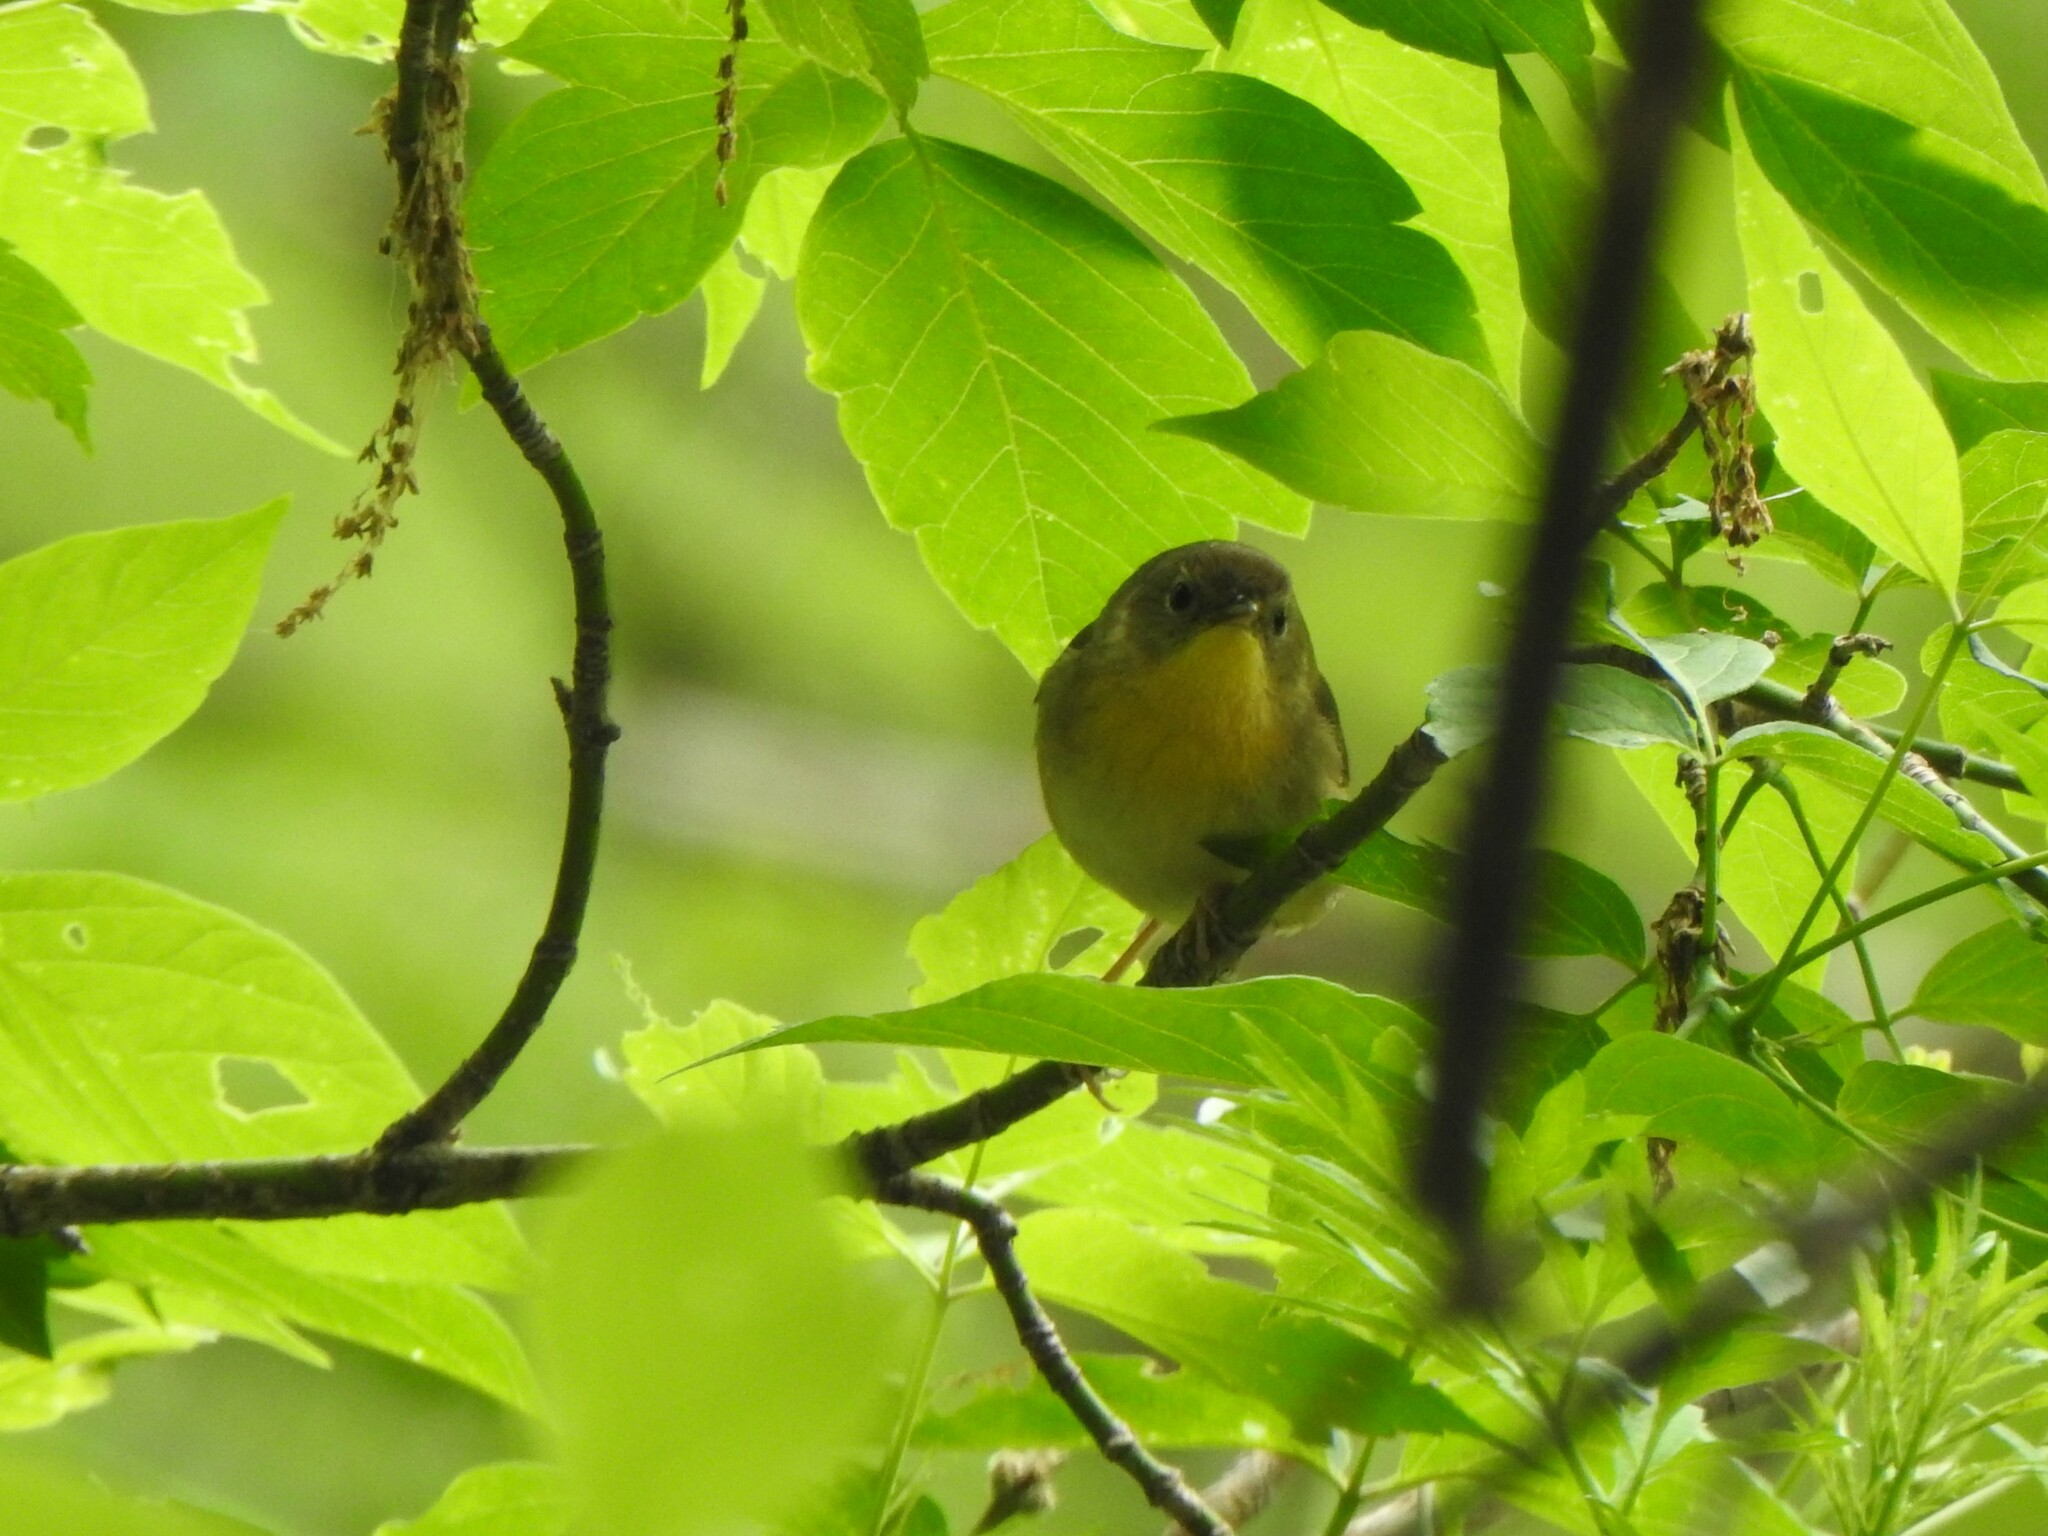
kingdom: Animalia
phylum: Chordata
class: Aves
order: Passeriformes
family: Parulidae
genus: Geothlypis
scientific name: Geothlypis trichas
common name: Common yellowthroat
